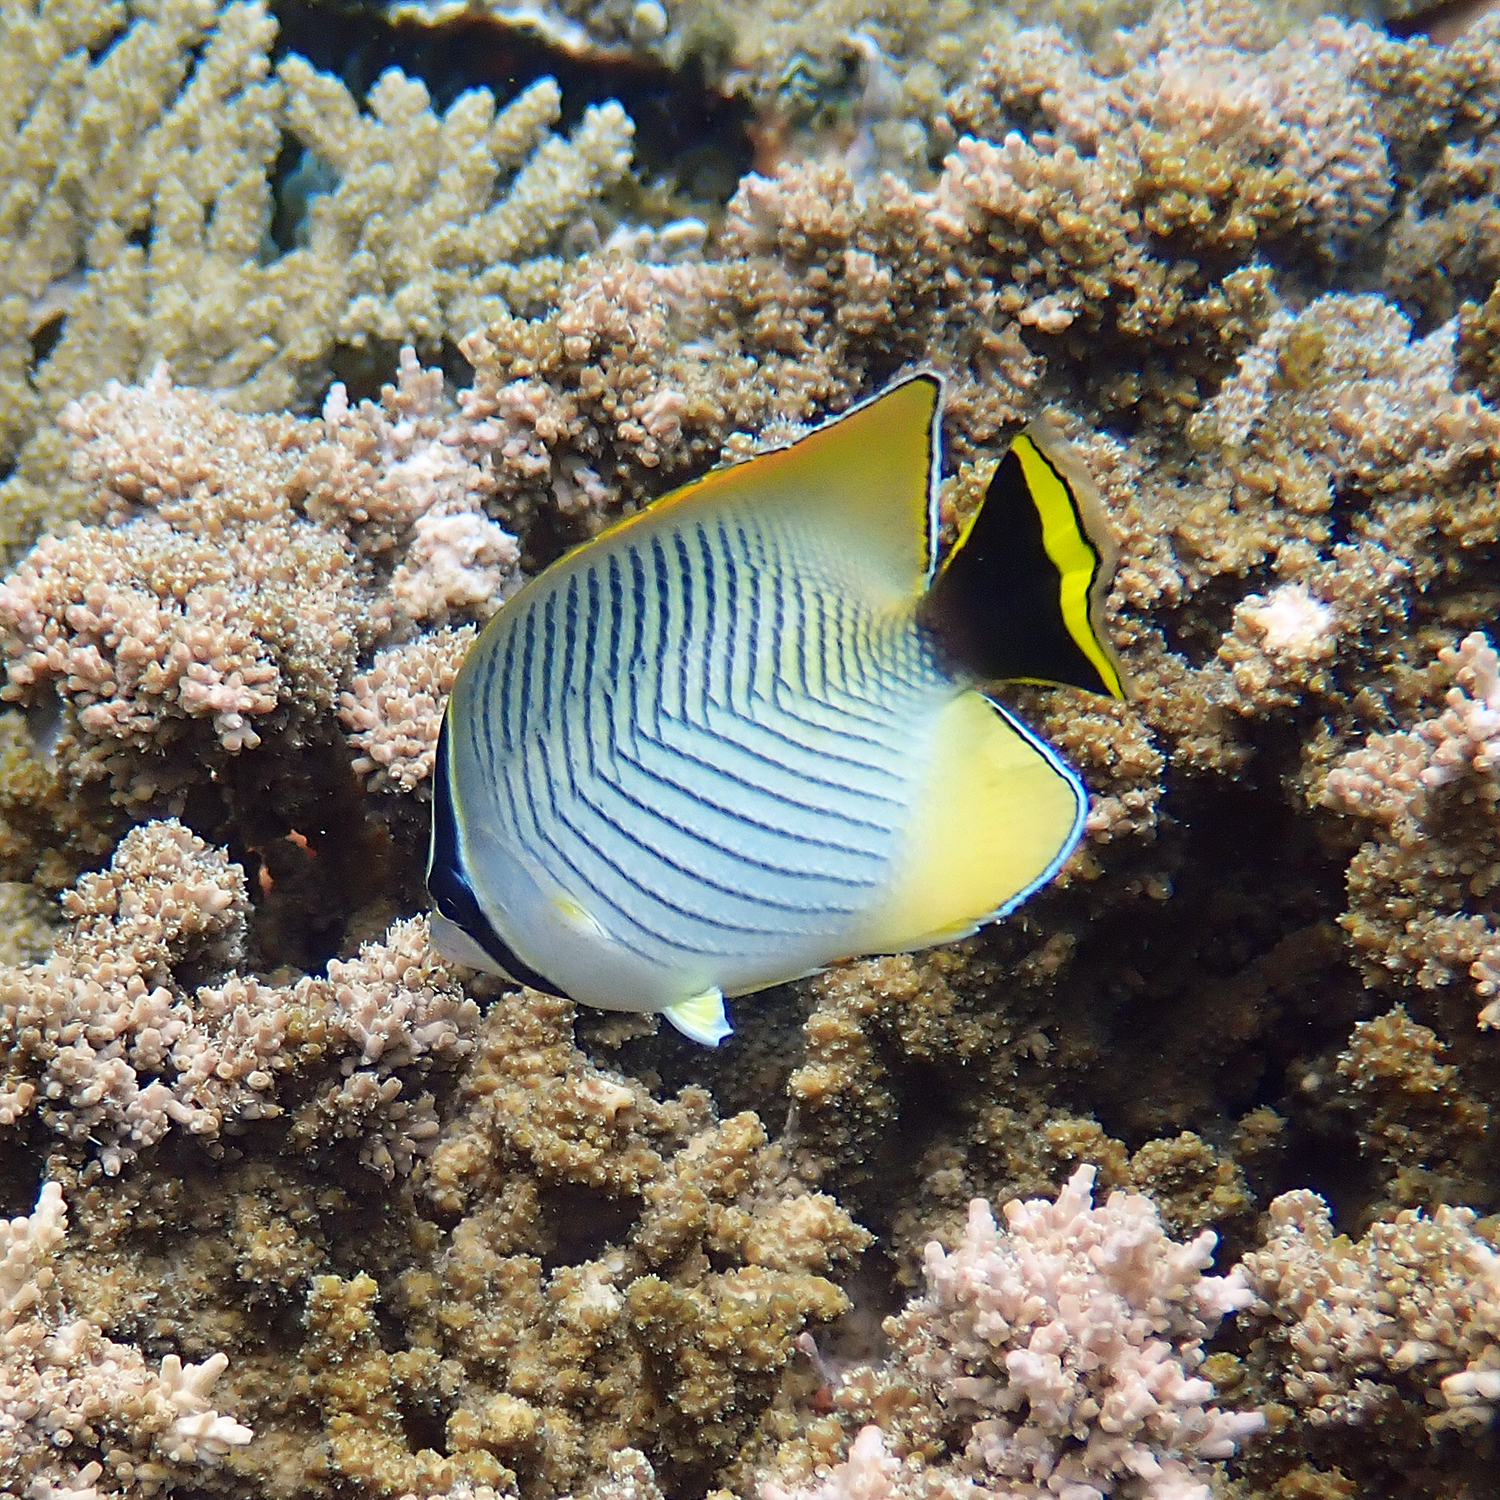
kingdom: Animalia
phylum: Chordata
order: Perciformes
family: Chaetodontidae
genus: Chaetodon
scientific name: Chaetodon trifascialis
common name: Chevroned butterflyfish
